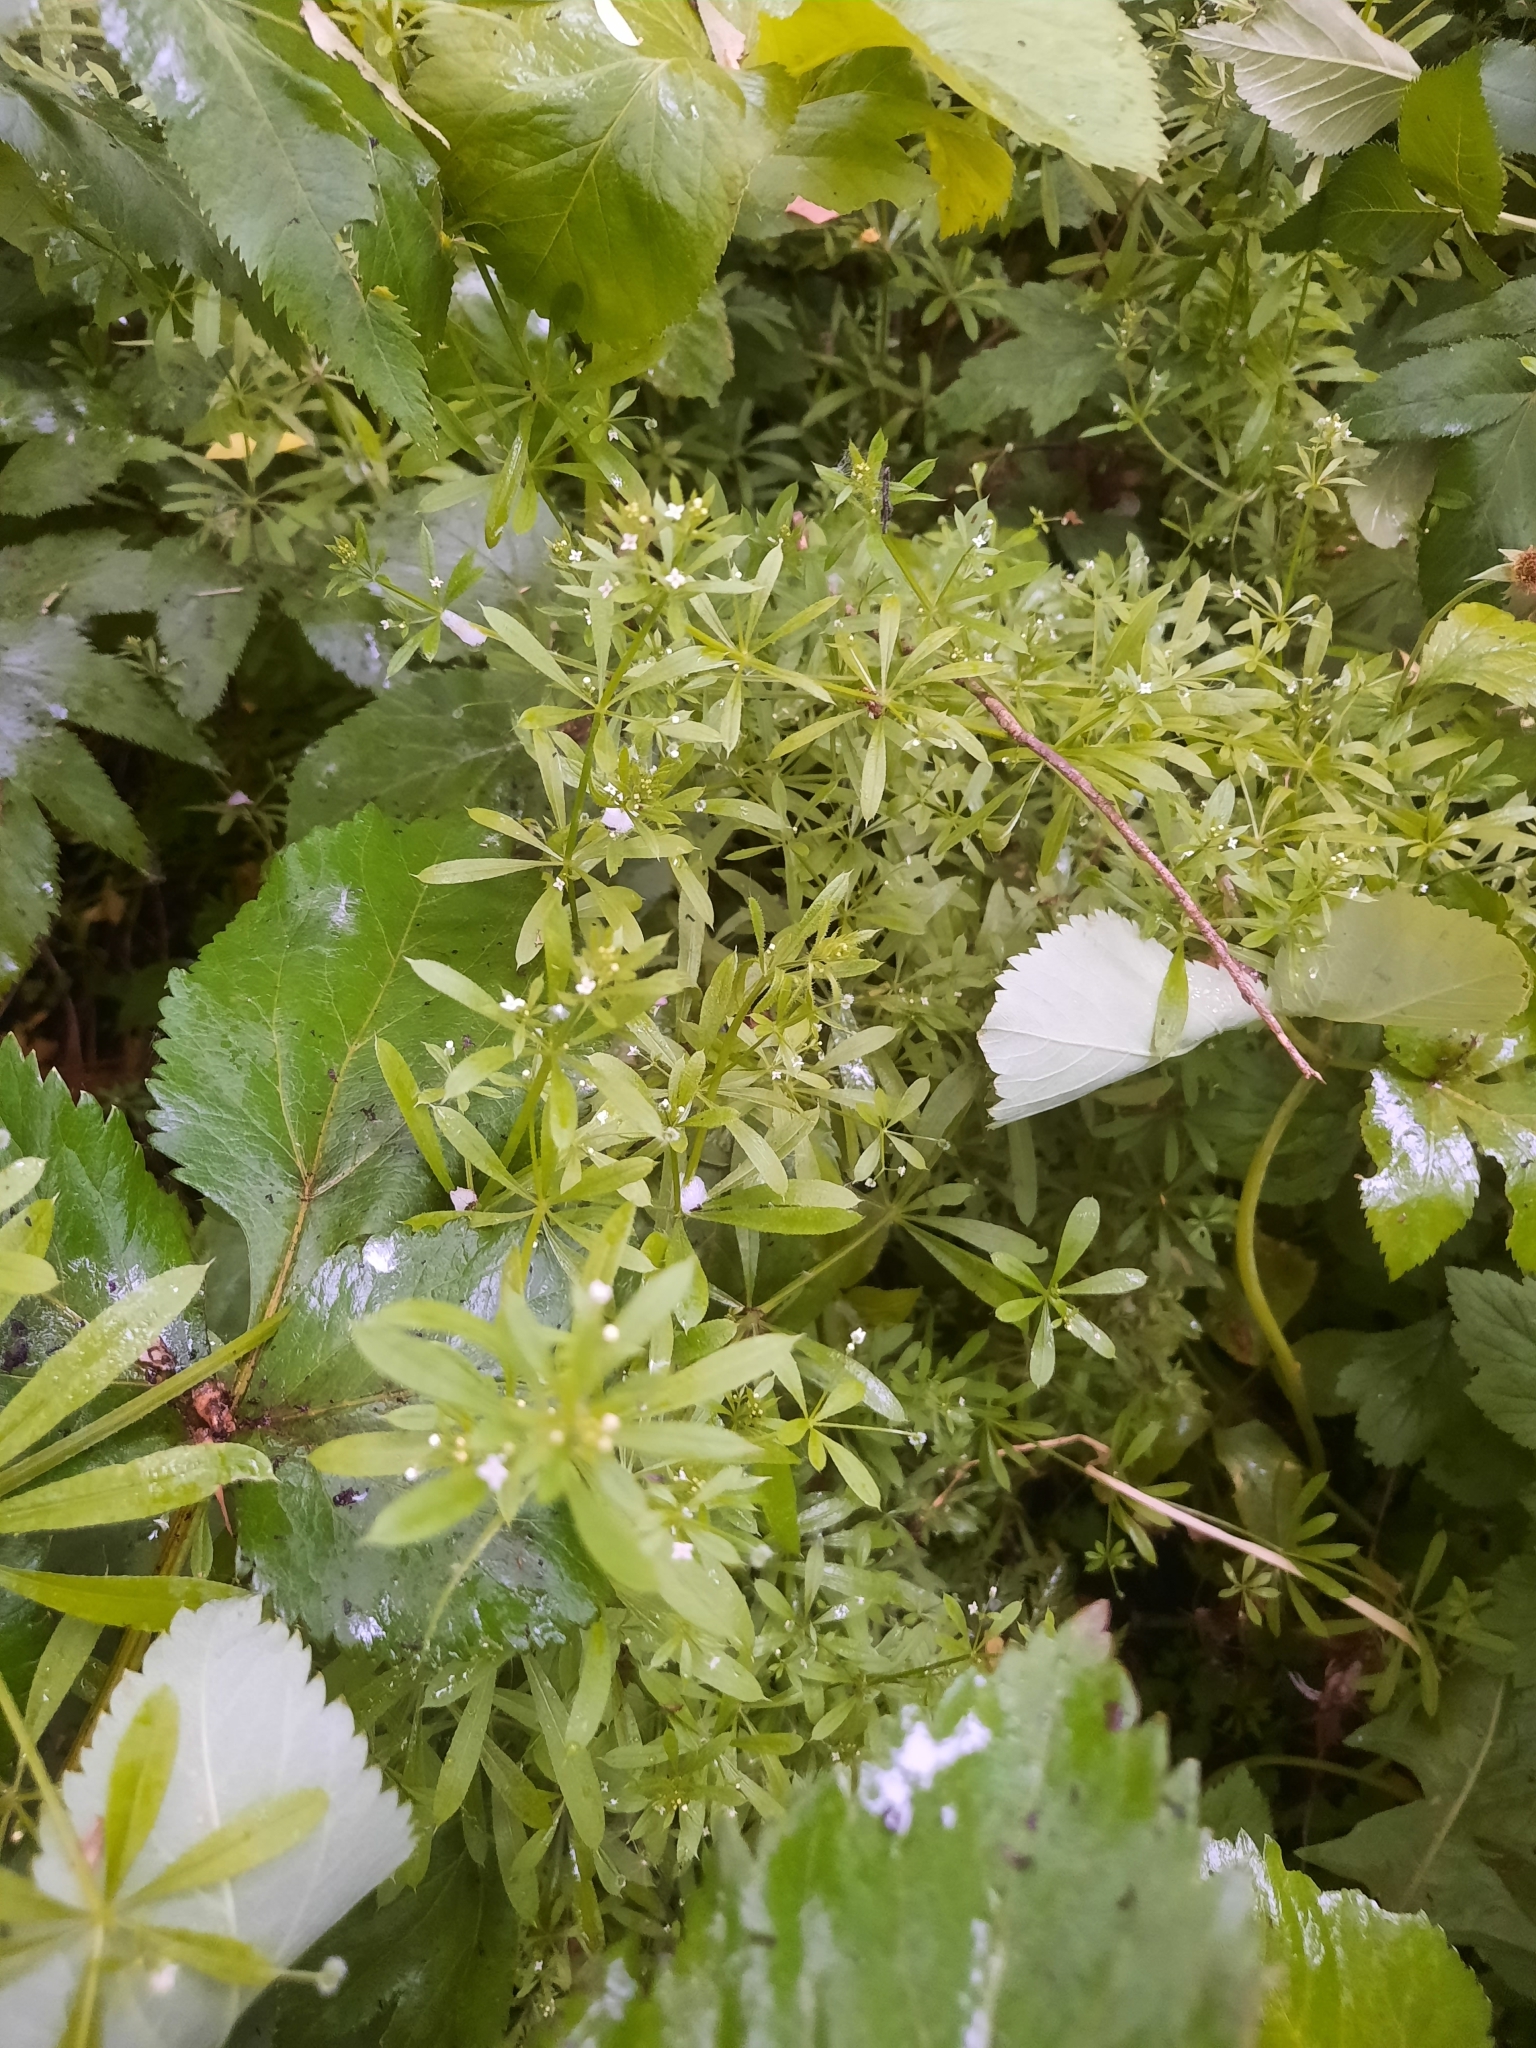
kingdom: Plantae
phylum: Tracheophyta
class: Magnoliopsida
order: Gentianales
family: Rubiaceae
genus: Galium
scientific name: Galium aparine
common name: Cleavers
